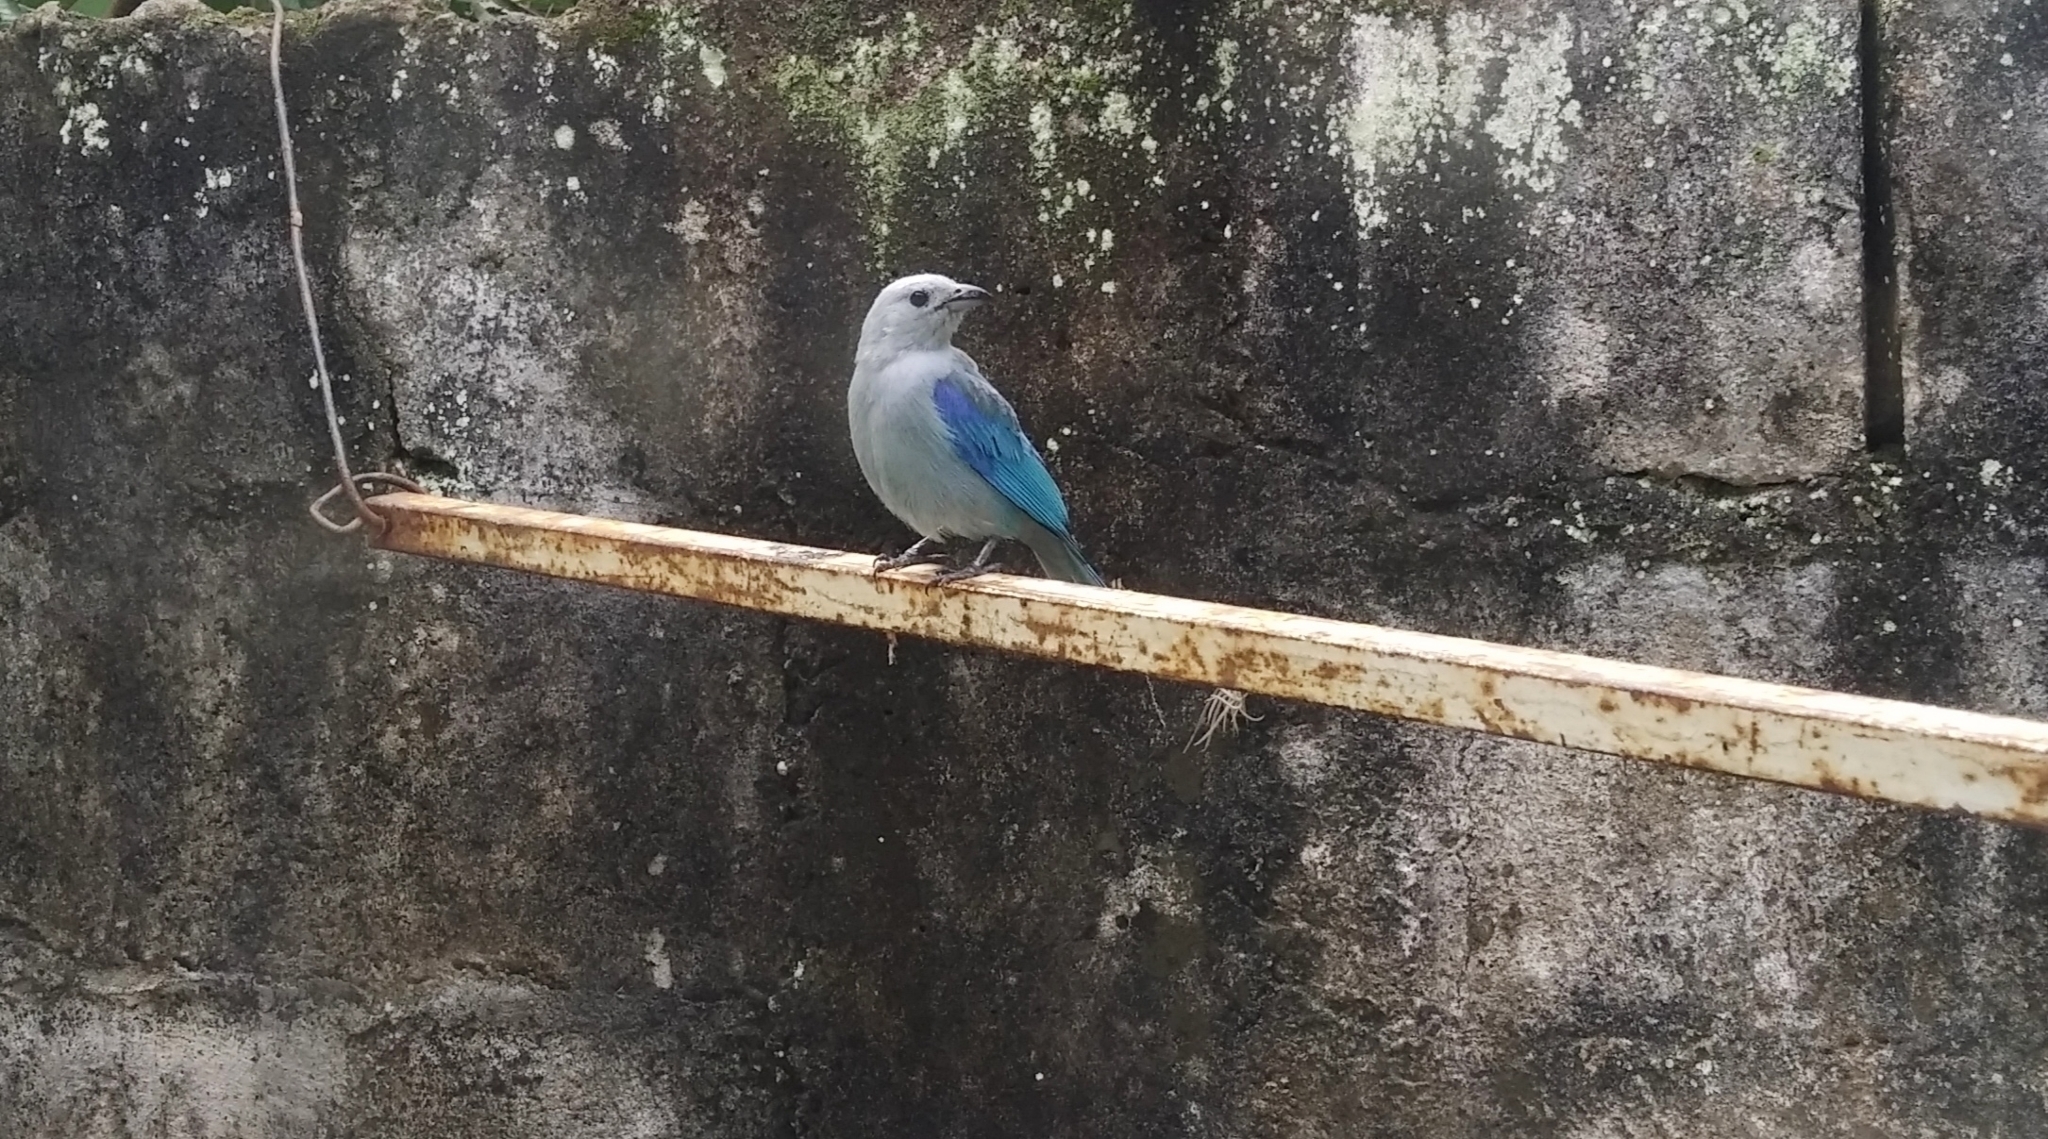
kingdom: Animalia
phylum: Chordata
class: Aves
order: Passeriformes
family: Thraupidae
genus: Thraupis
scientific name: Thraupis episcopus
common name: Blue-grey tanager
